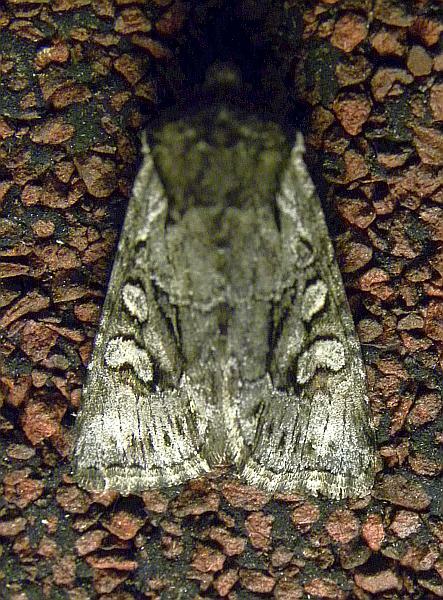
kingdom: Animalia
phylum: Arthropoda
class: Insecta
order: Lepidoptera
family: Noctuidae
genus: Lacinipolia
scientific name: Lacinipolia vicina
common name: Vicina dart
